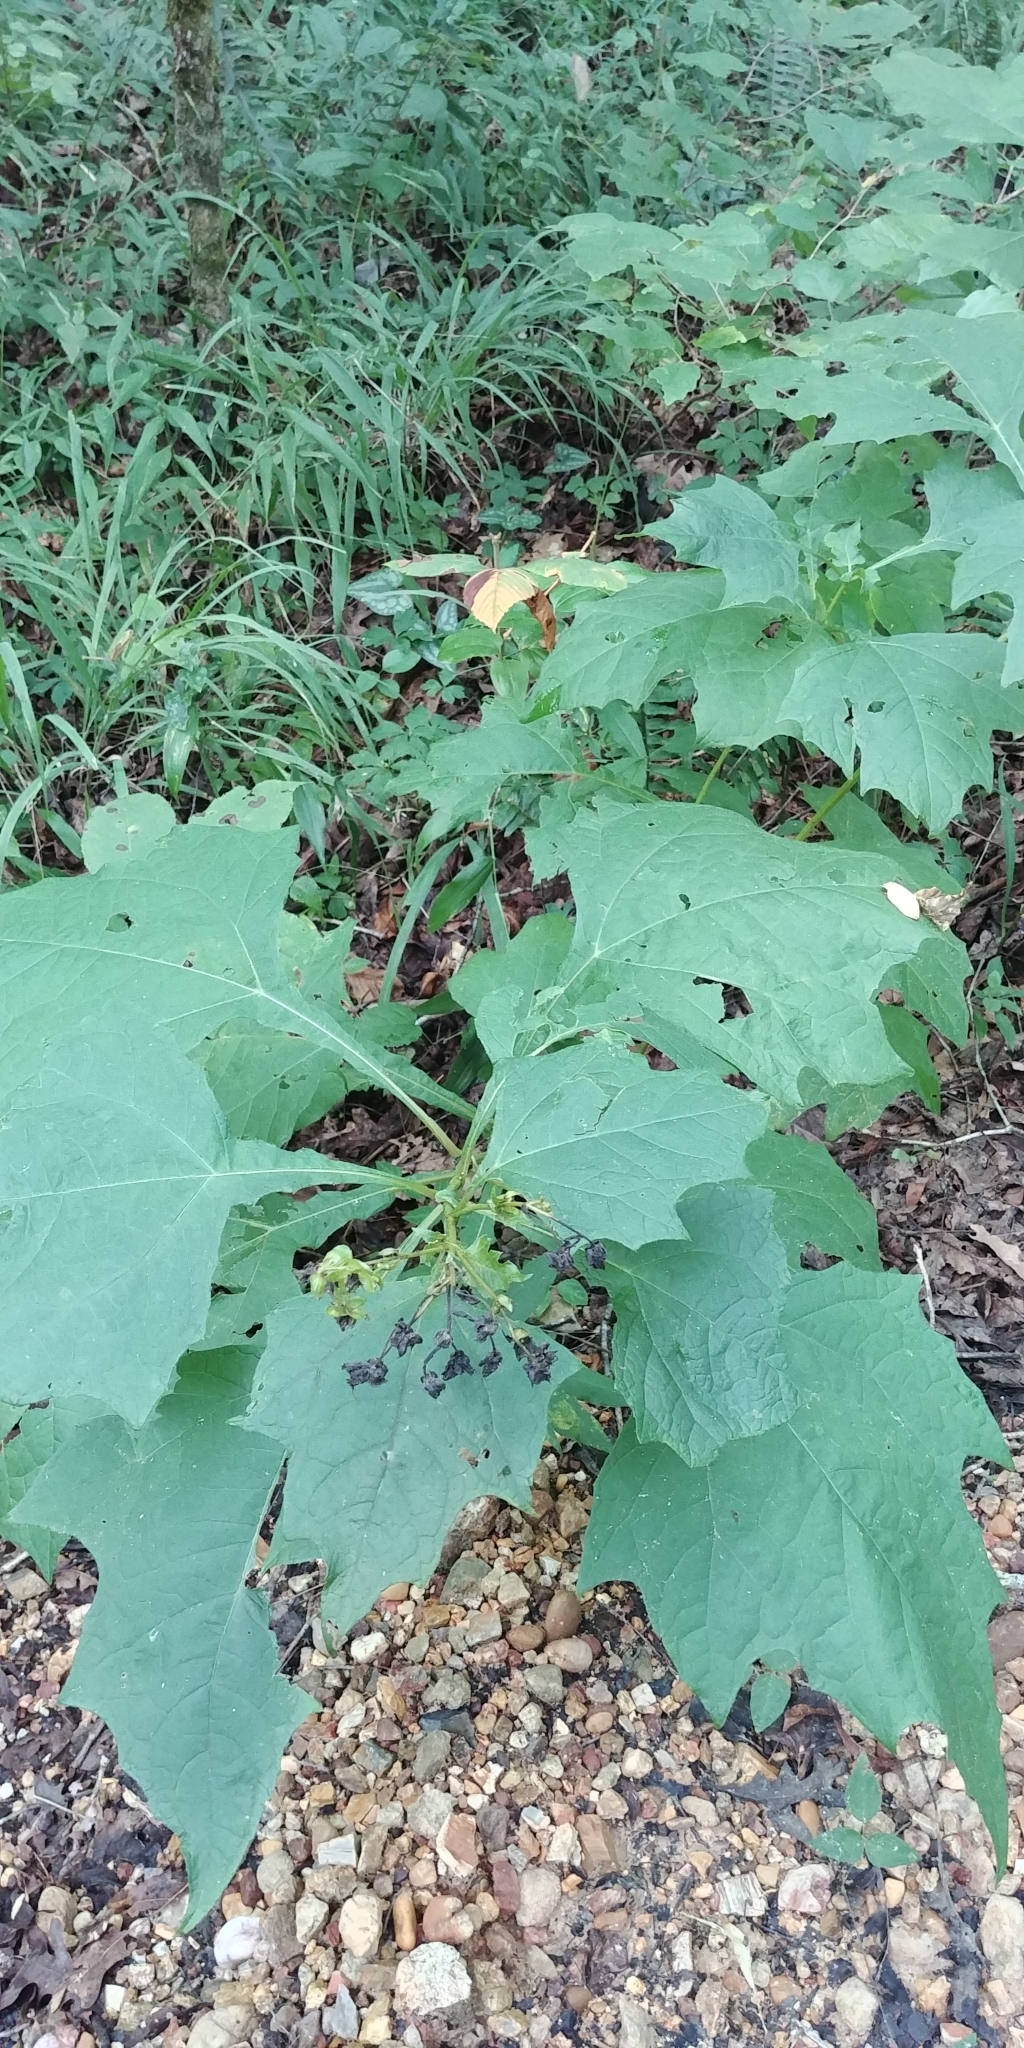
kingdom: Plantae
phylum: Tracheophyta
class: Magnoliopsida
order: Asterales
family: Asteraceae
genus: Smallanthus
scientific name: Smallanthus uvedalia
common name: Bear's-foot
